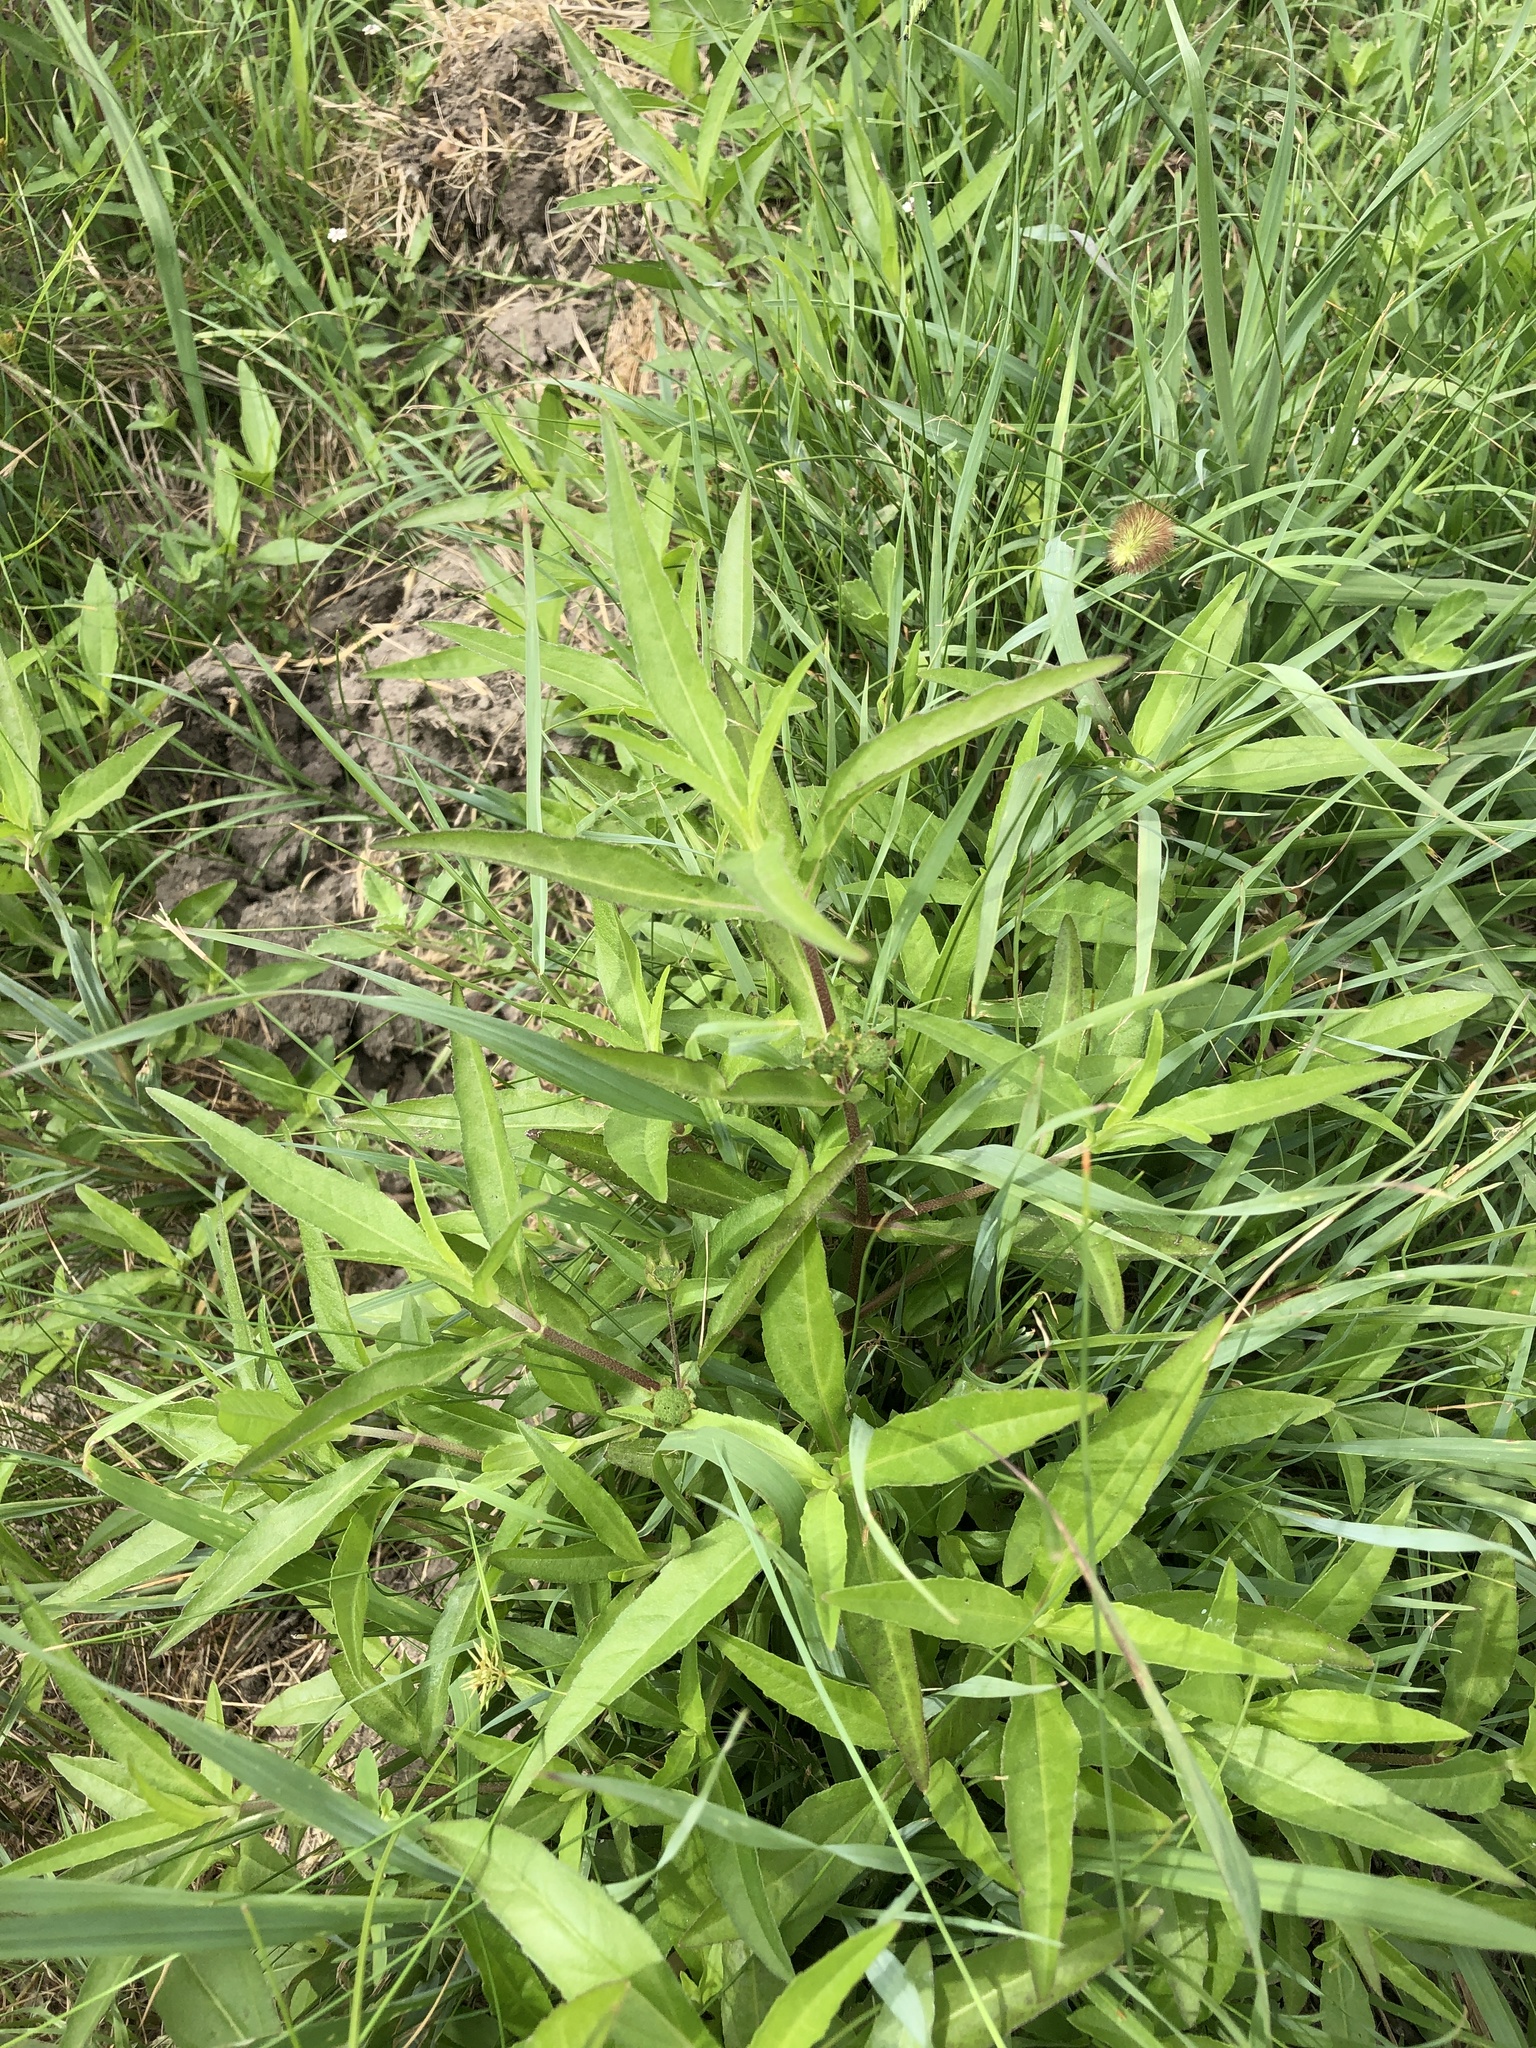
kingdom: Plantae
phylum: Tracheophyta
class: Magnoliopsida
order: Asterales
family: Asteraceae
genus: Eclipta
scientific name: Eclipta prostrata
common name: False daisy
